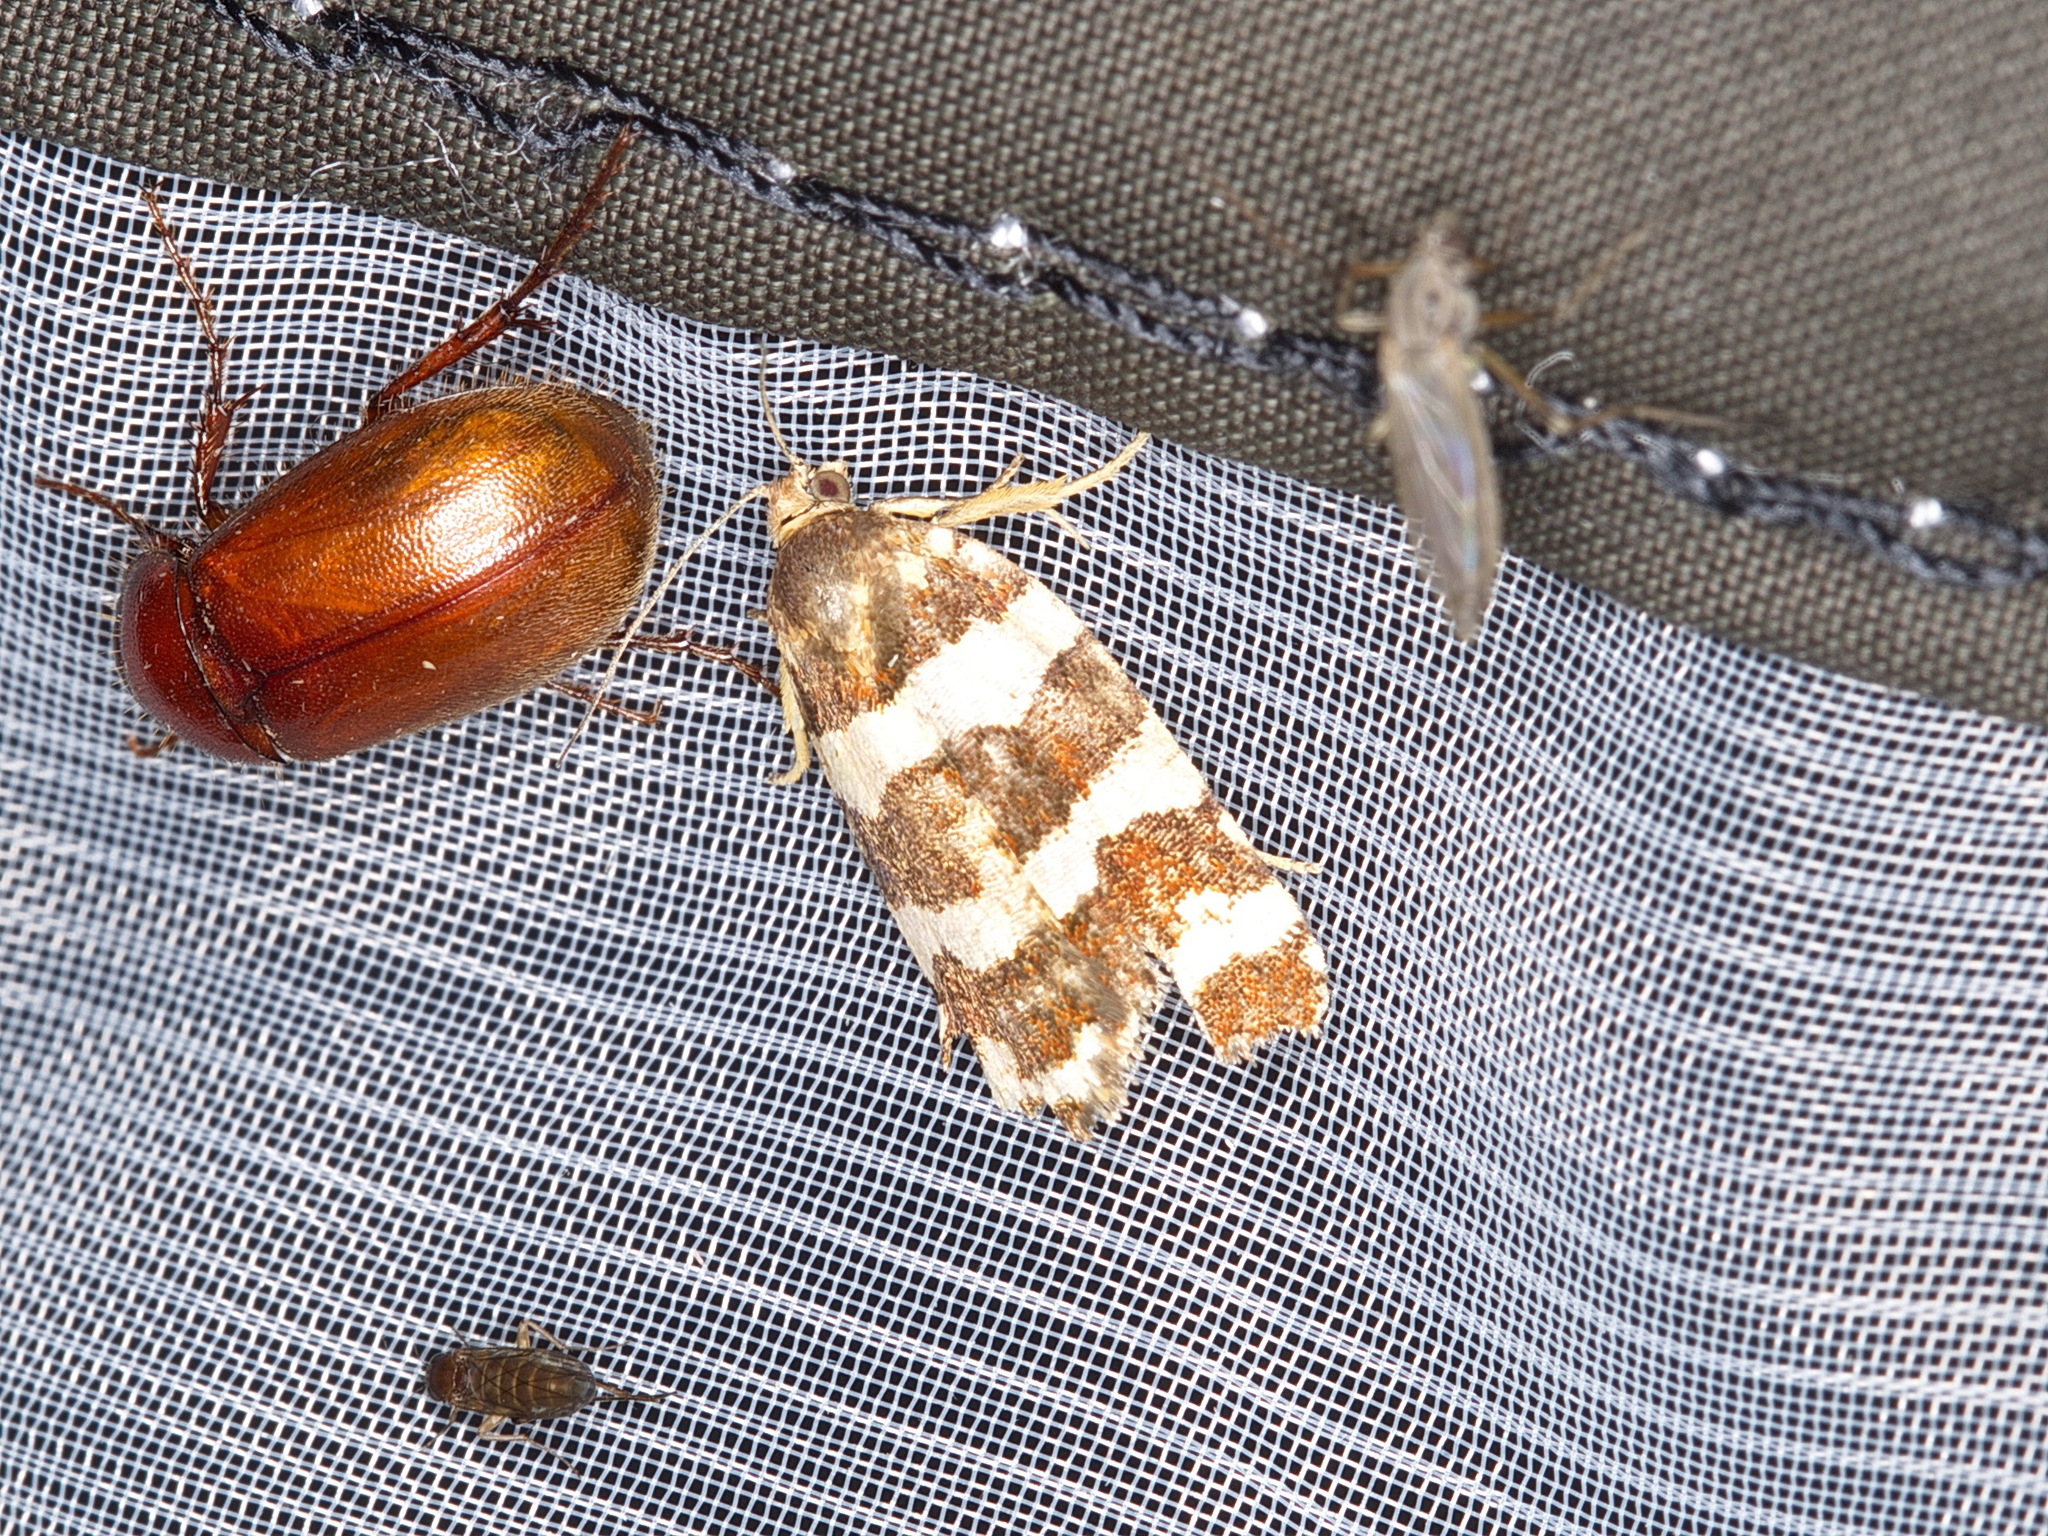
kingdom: Animalia
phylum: Arthropoda
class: Insecta
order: Lepidoptera
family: Tortricidae
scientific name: Tortricidae
